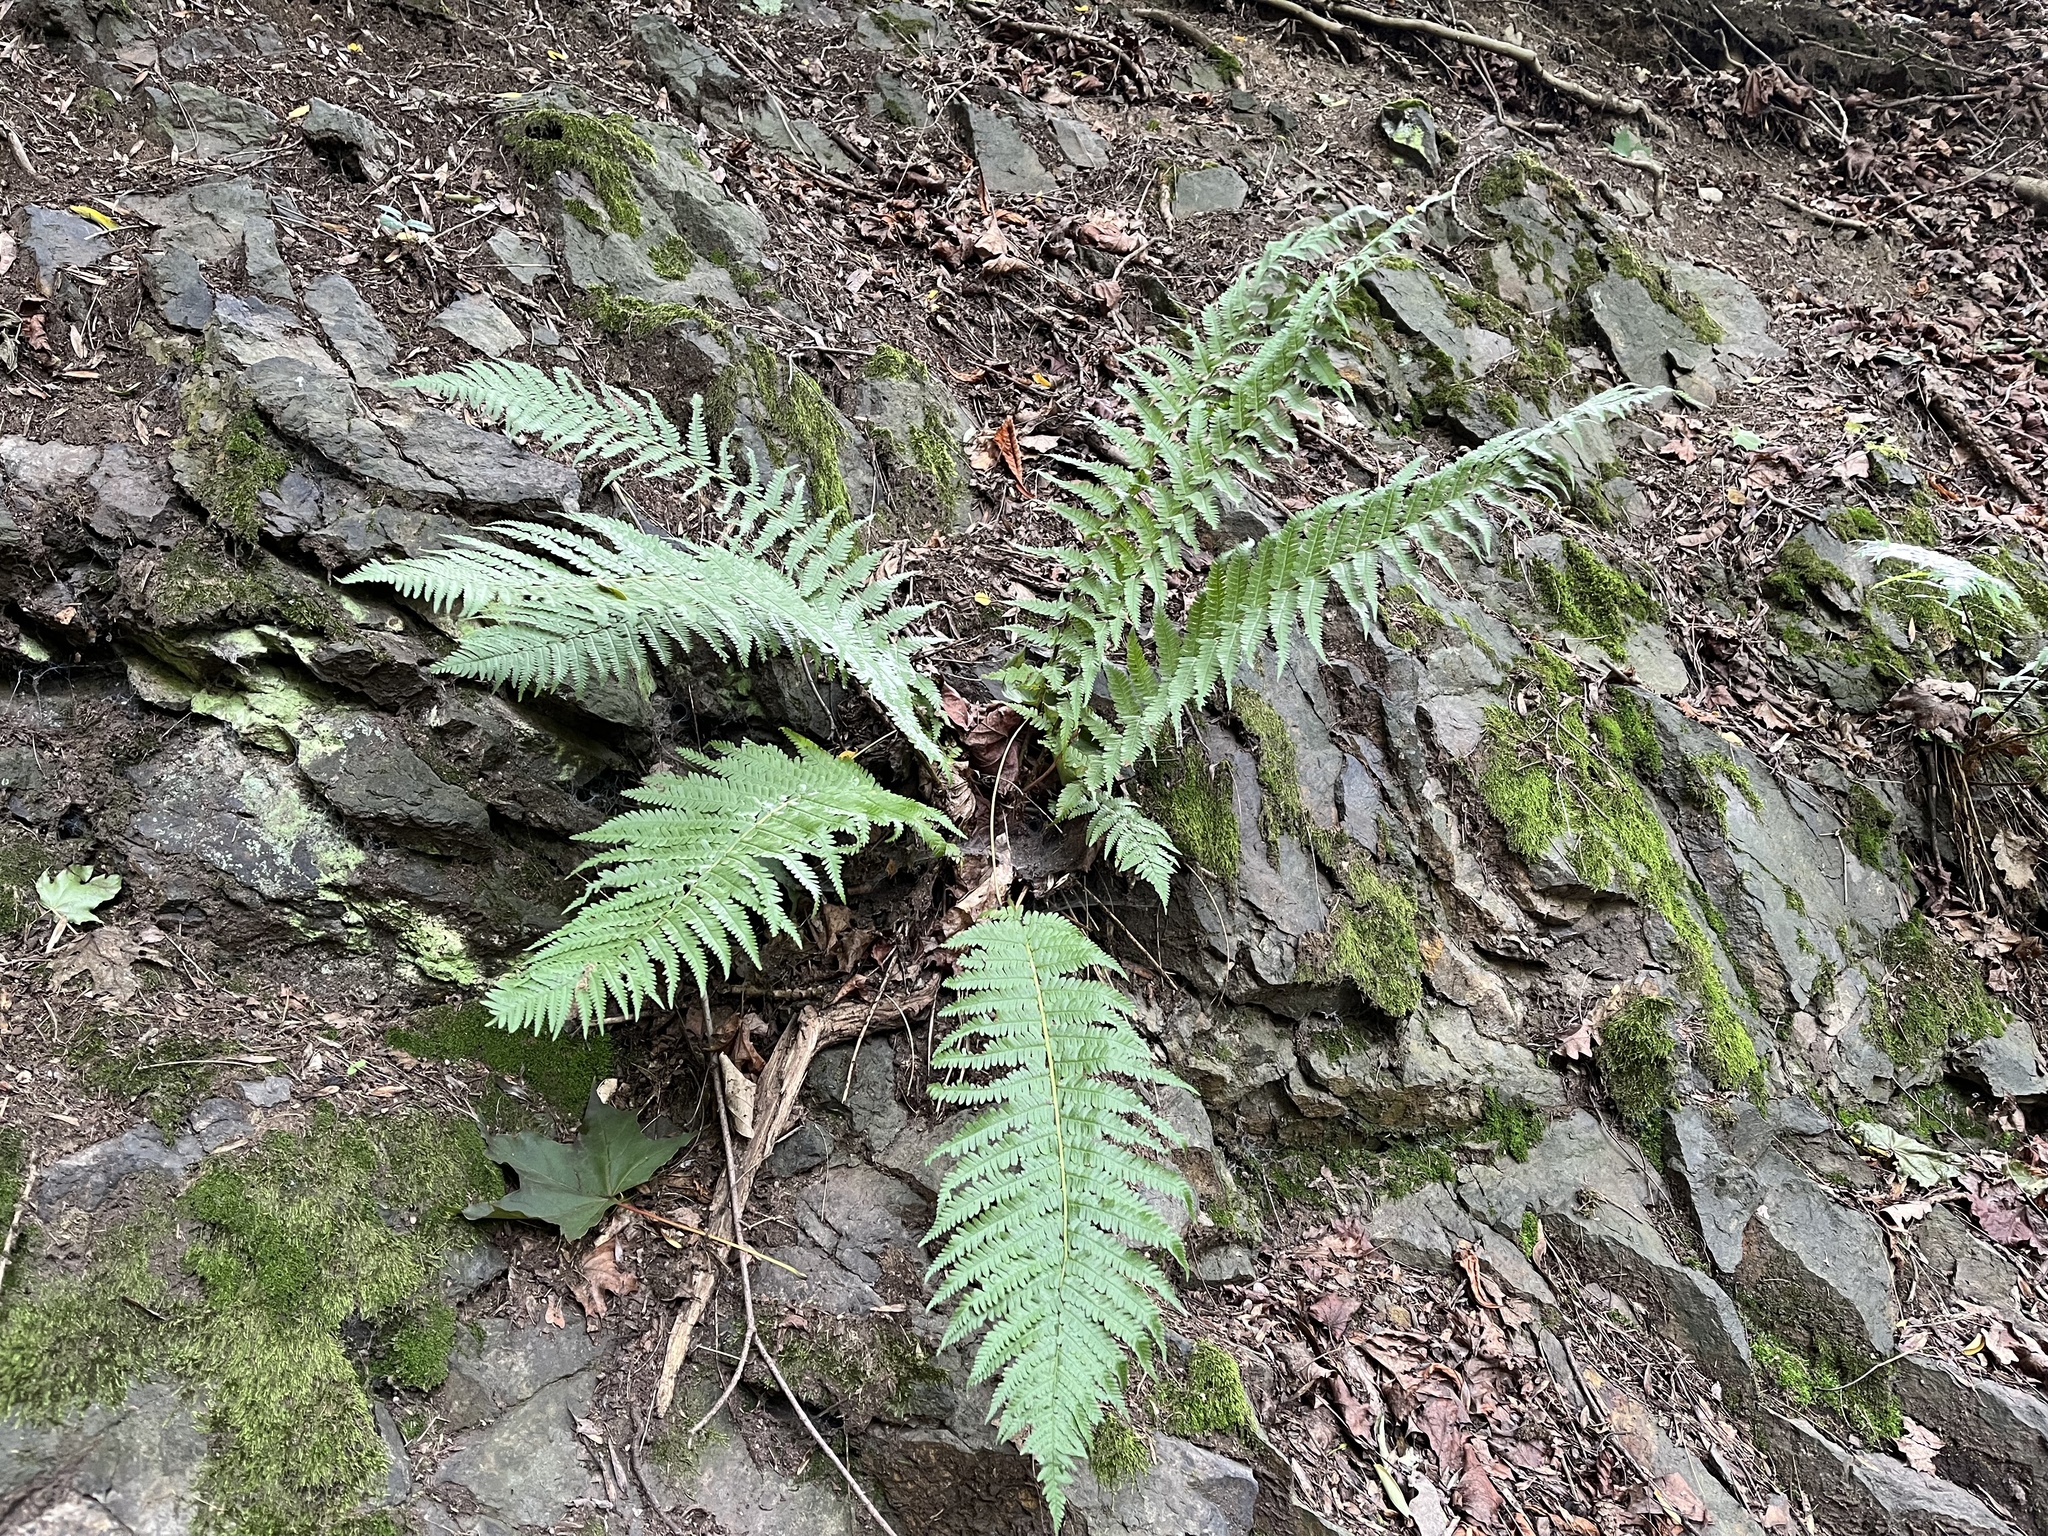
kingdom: Plantae
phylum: Tracheophyta
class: Polypodiopsida
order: Polypodiales
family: Dryopteridaceae
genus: Dryopteris
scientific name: Dryopteris filix-mas
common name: Male fern
